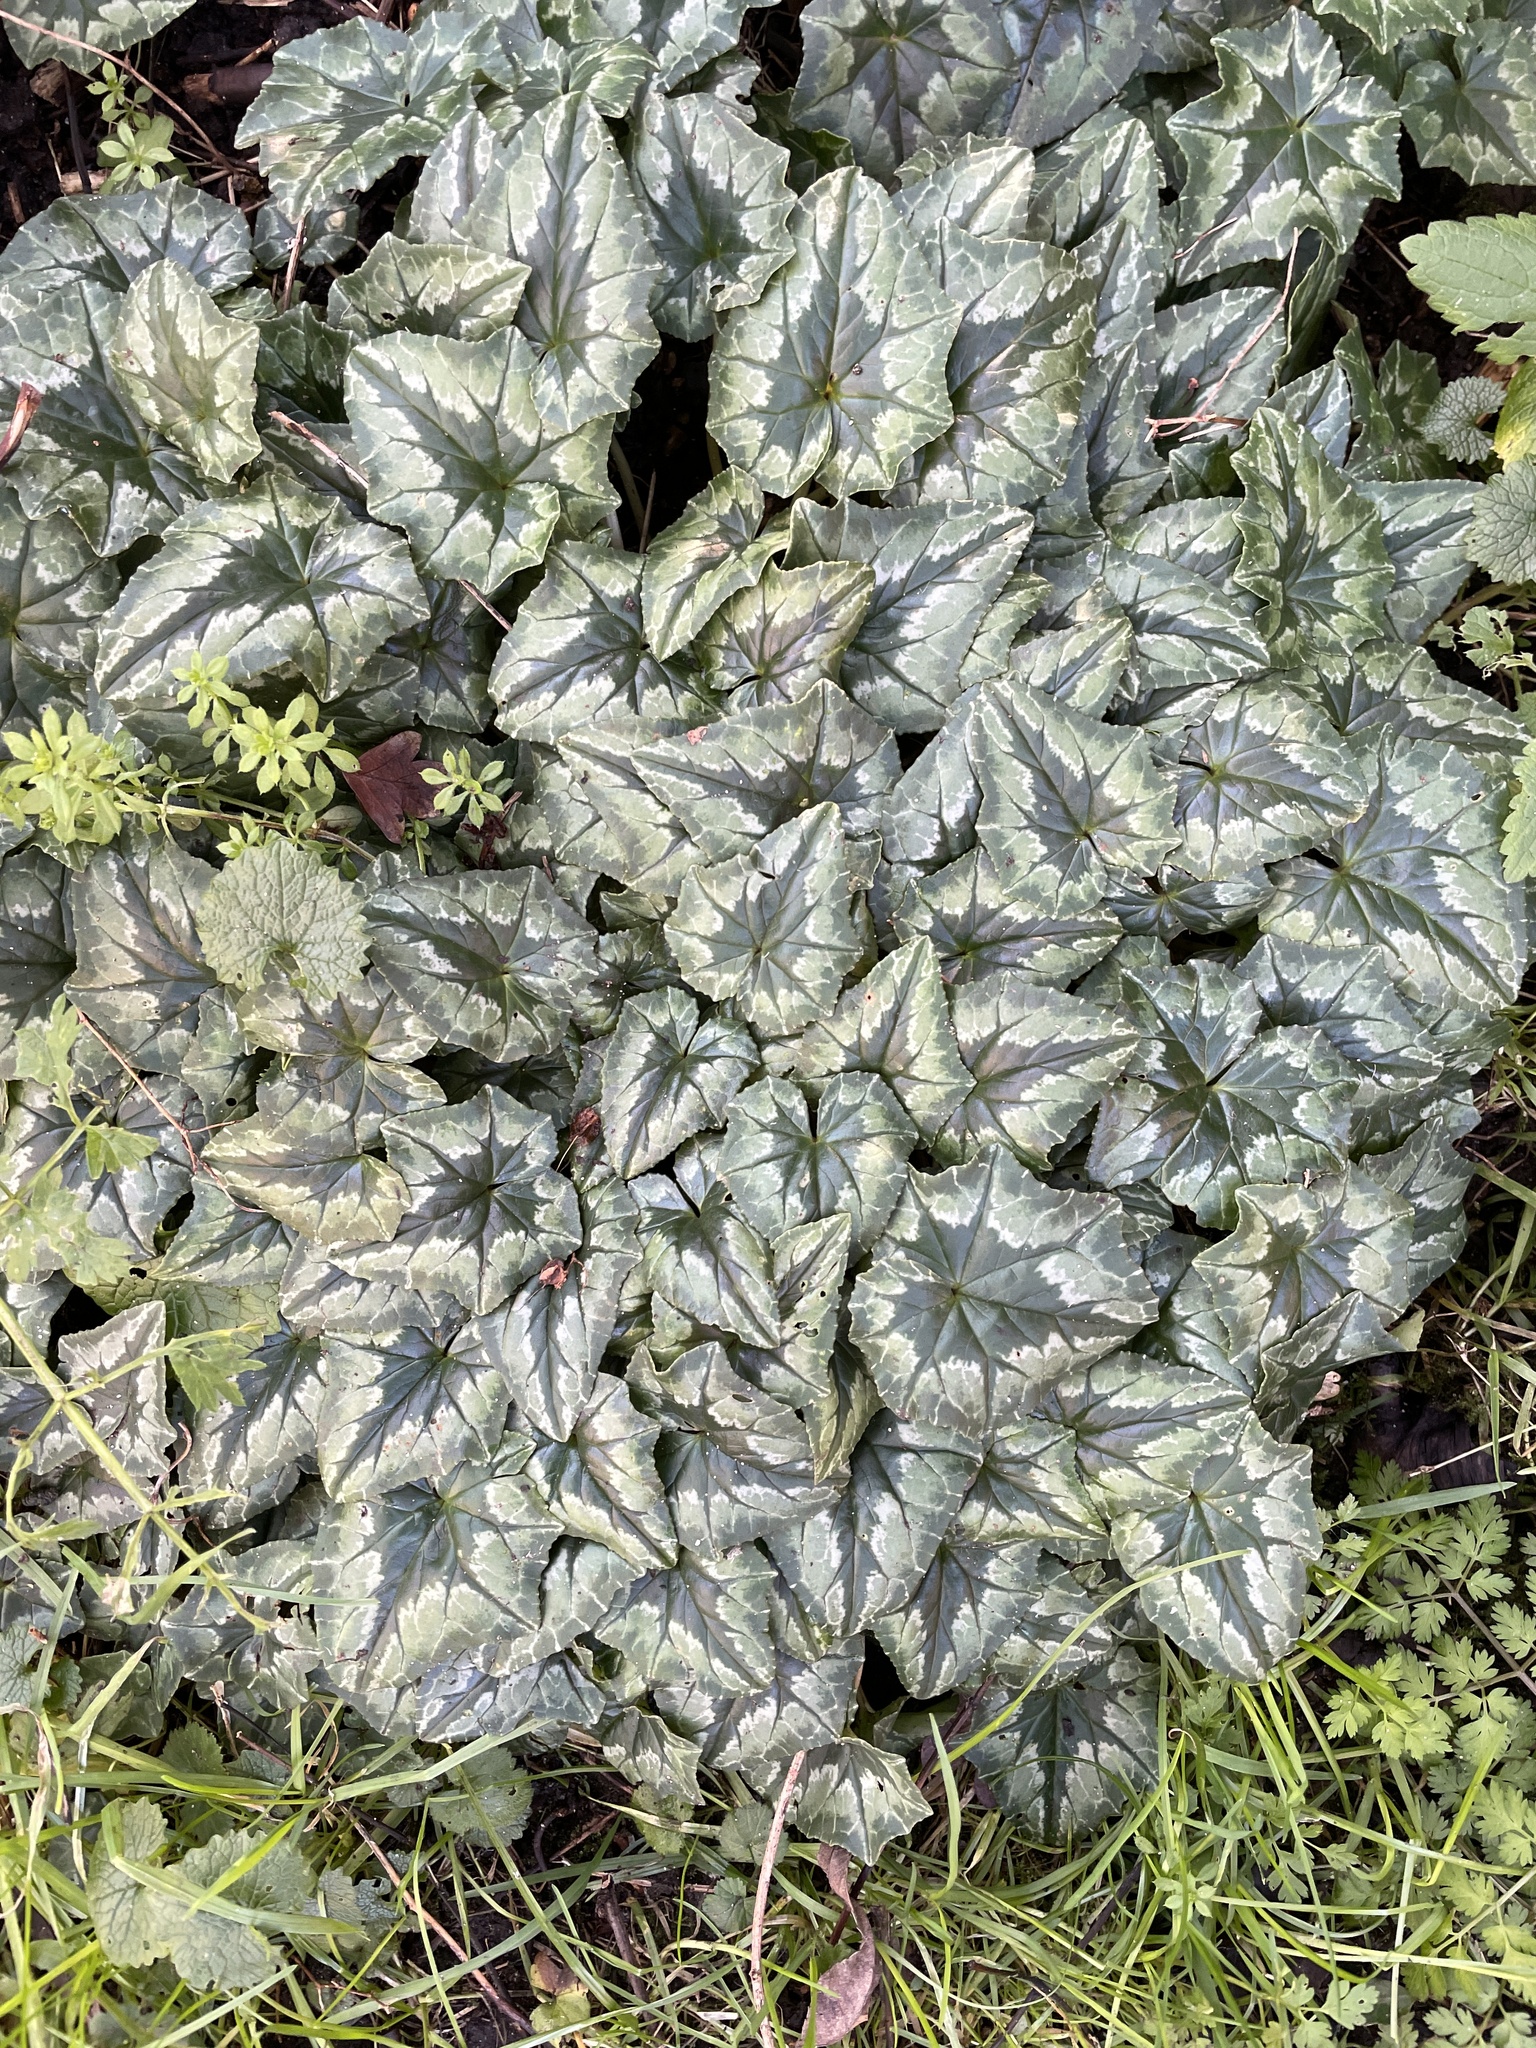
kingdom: Plantae
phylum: Tracheophyta
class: Magnoliopsida
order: Ericales
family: Primulaceae
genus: Cyclamen
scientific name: Cyclamen hederifolium
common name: Sowbread
